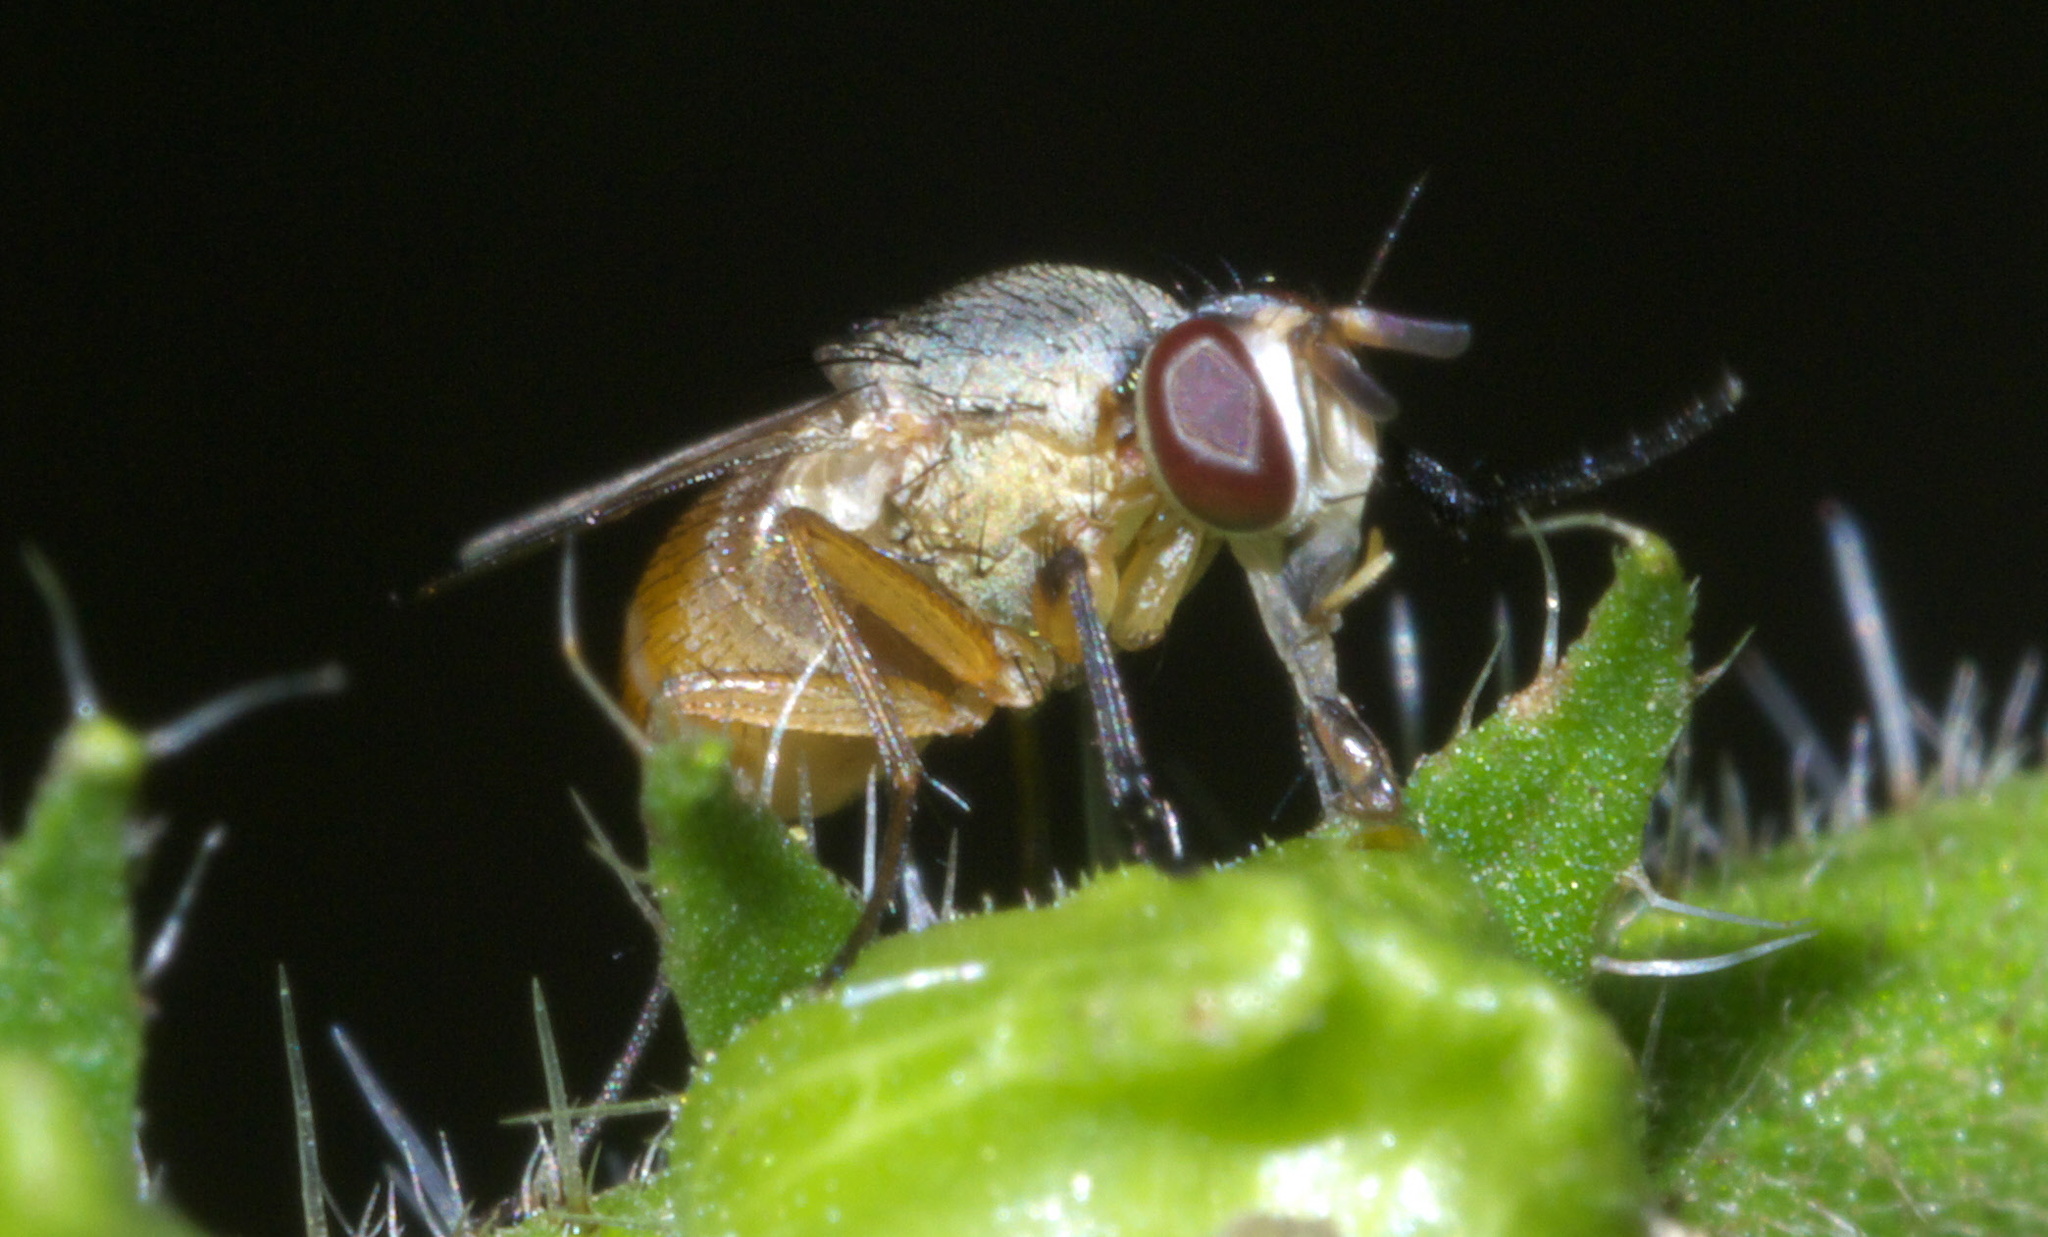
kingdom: Animalia
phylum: Arthropoda
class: Insecta
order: Diptera
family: Muscidae
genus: Atherigona
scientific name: Atherigona reversura
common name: Bermudagrass stem maggot
